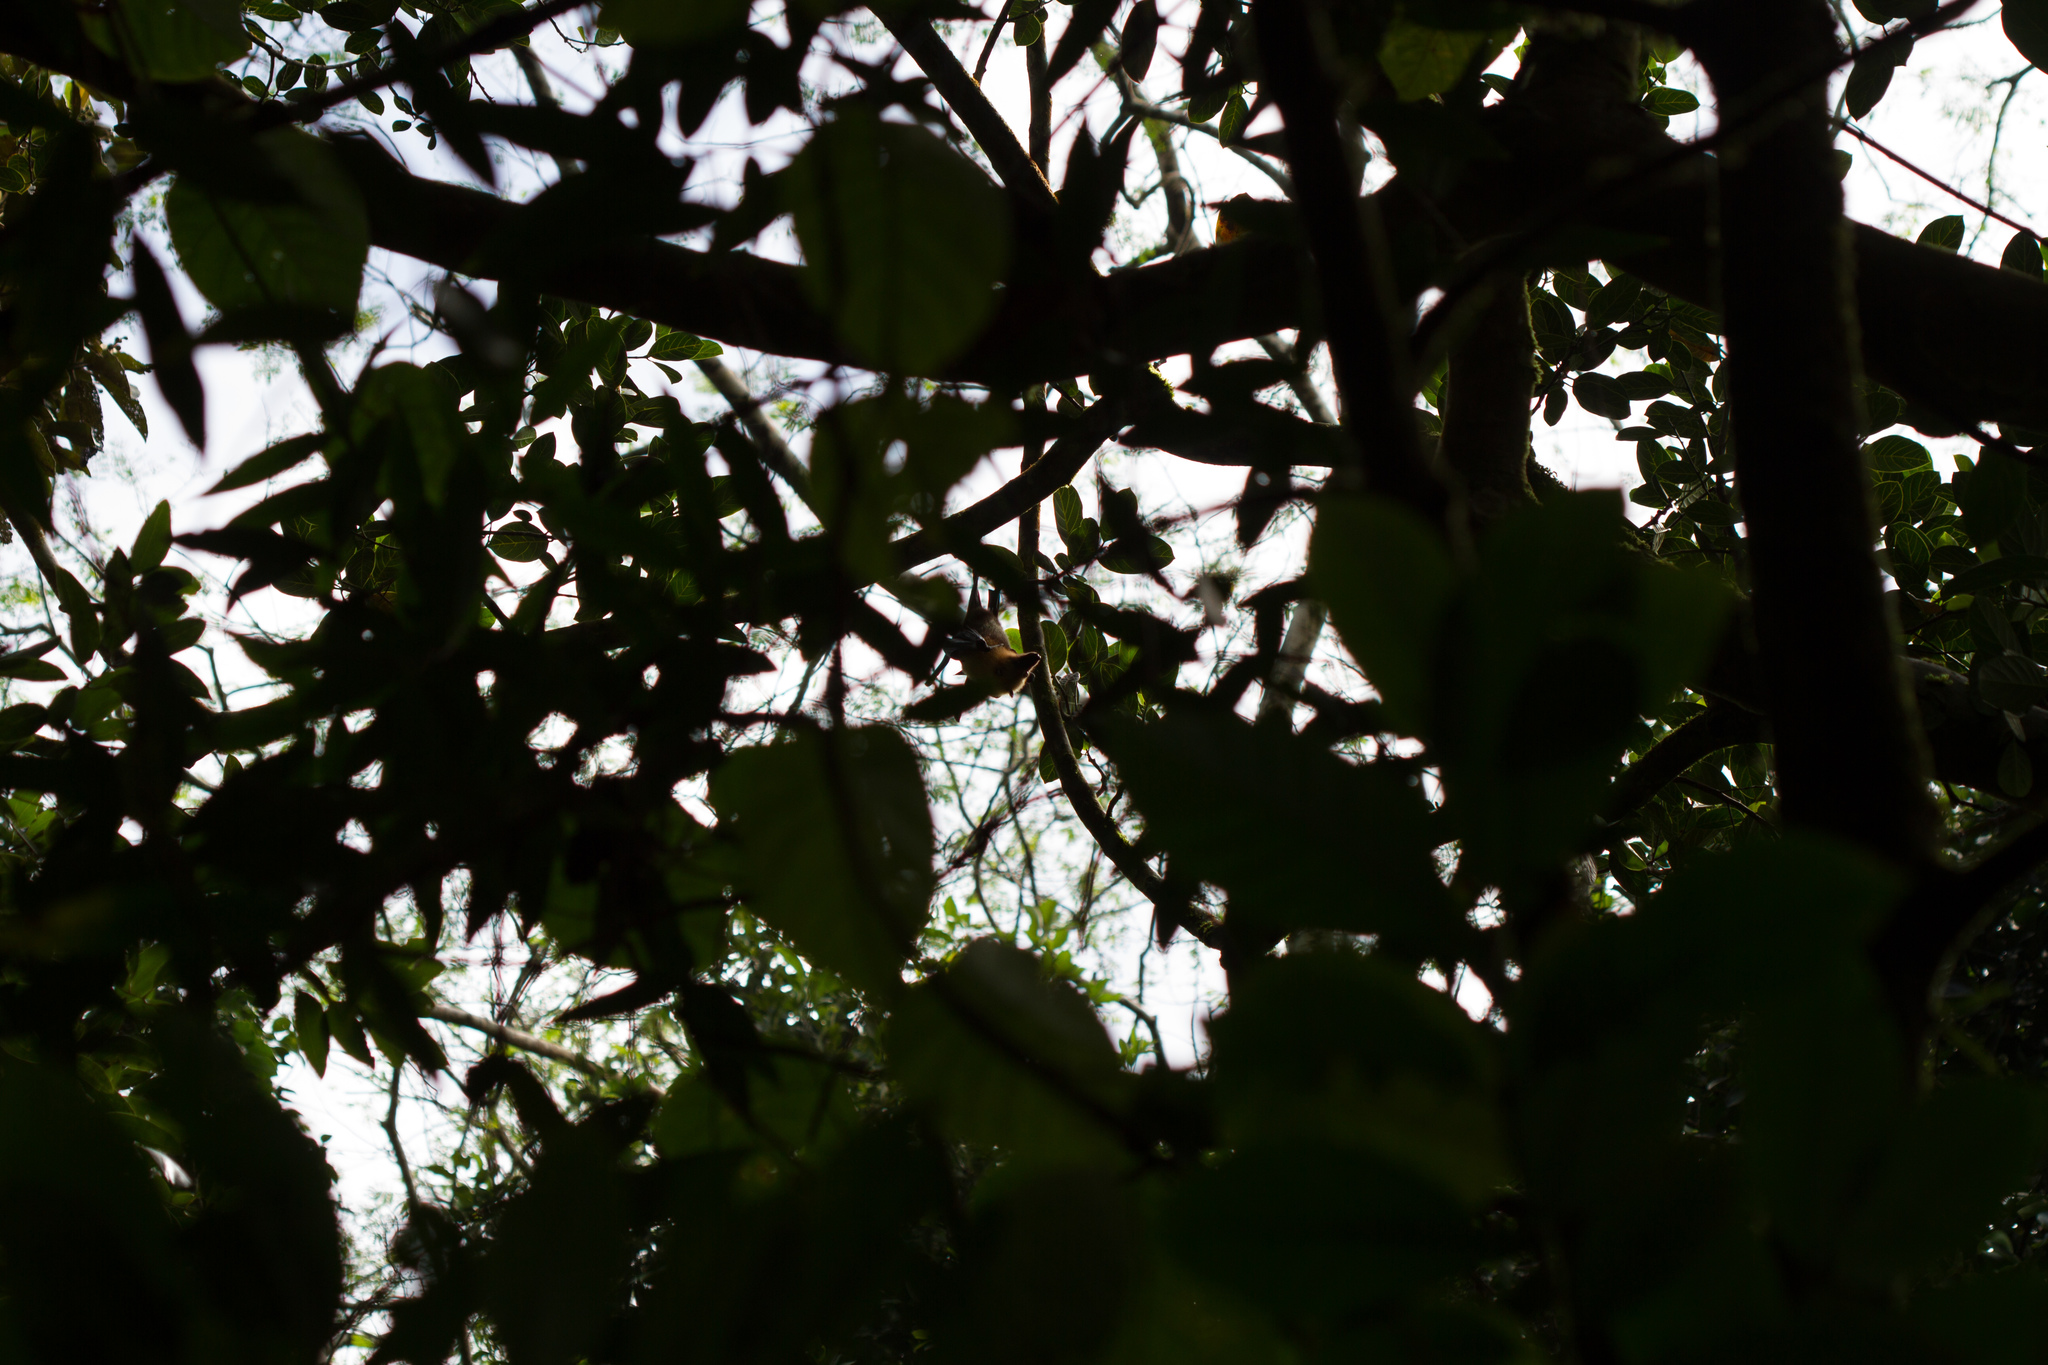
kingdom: Animalia
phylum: Chordata
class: Mammalia
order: Chiroptera
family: Pteropodidae
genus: Pteropus
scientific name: Pteropus seychellensis
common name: Seychelles flying fox
